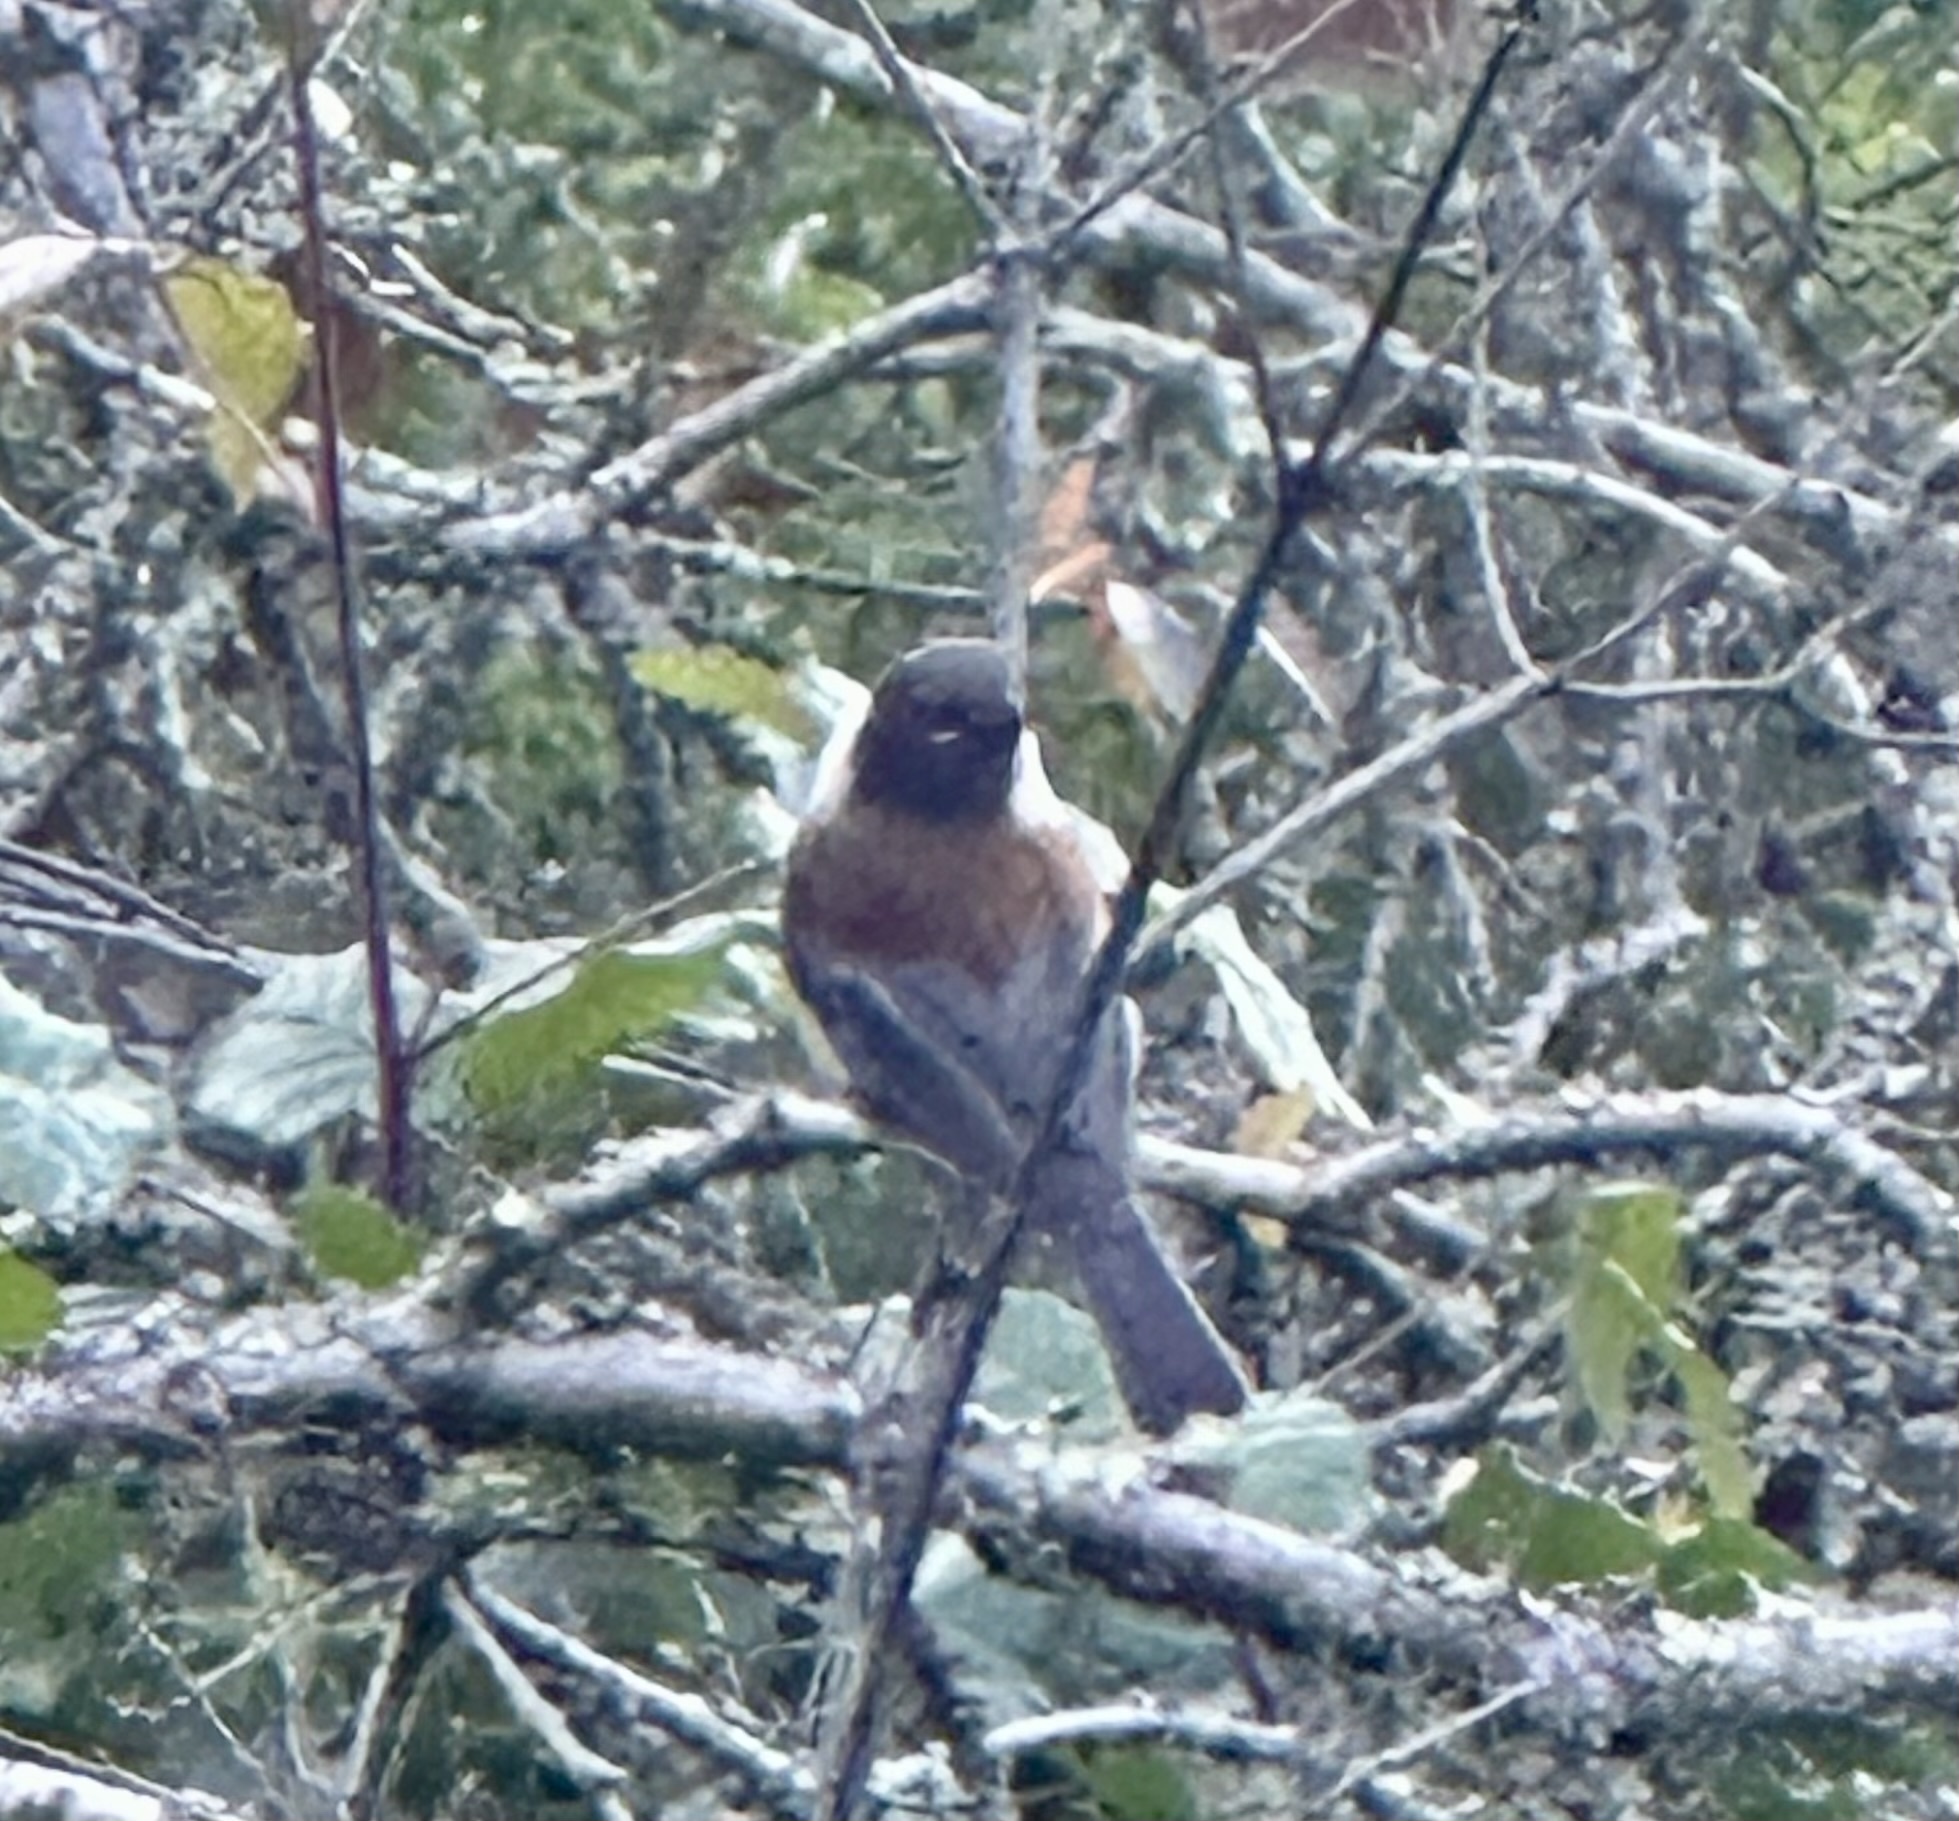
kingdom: Animalia
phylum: Chordata
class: Aves
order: Passeriformes
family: Paridae
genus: Poecile
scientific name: Poecile rufescens
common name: Chestnut-backed chickadee
